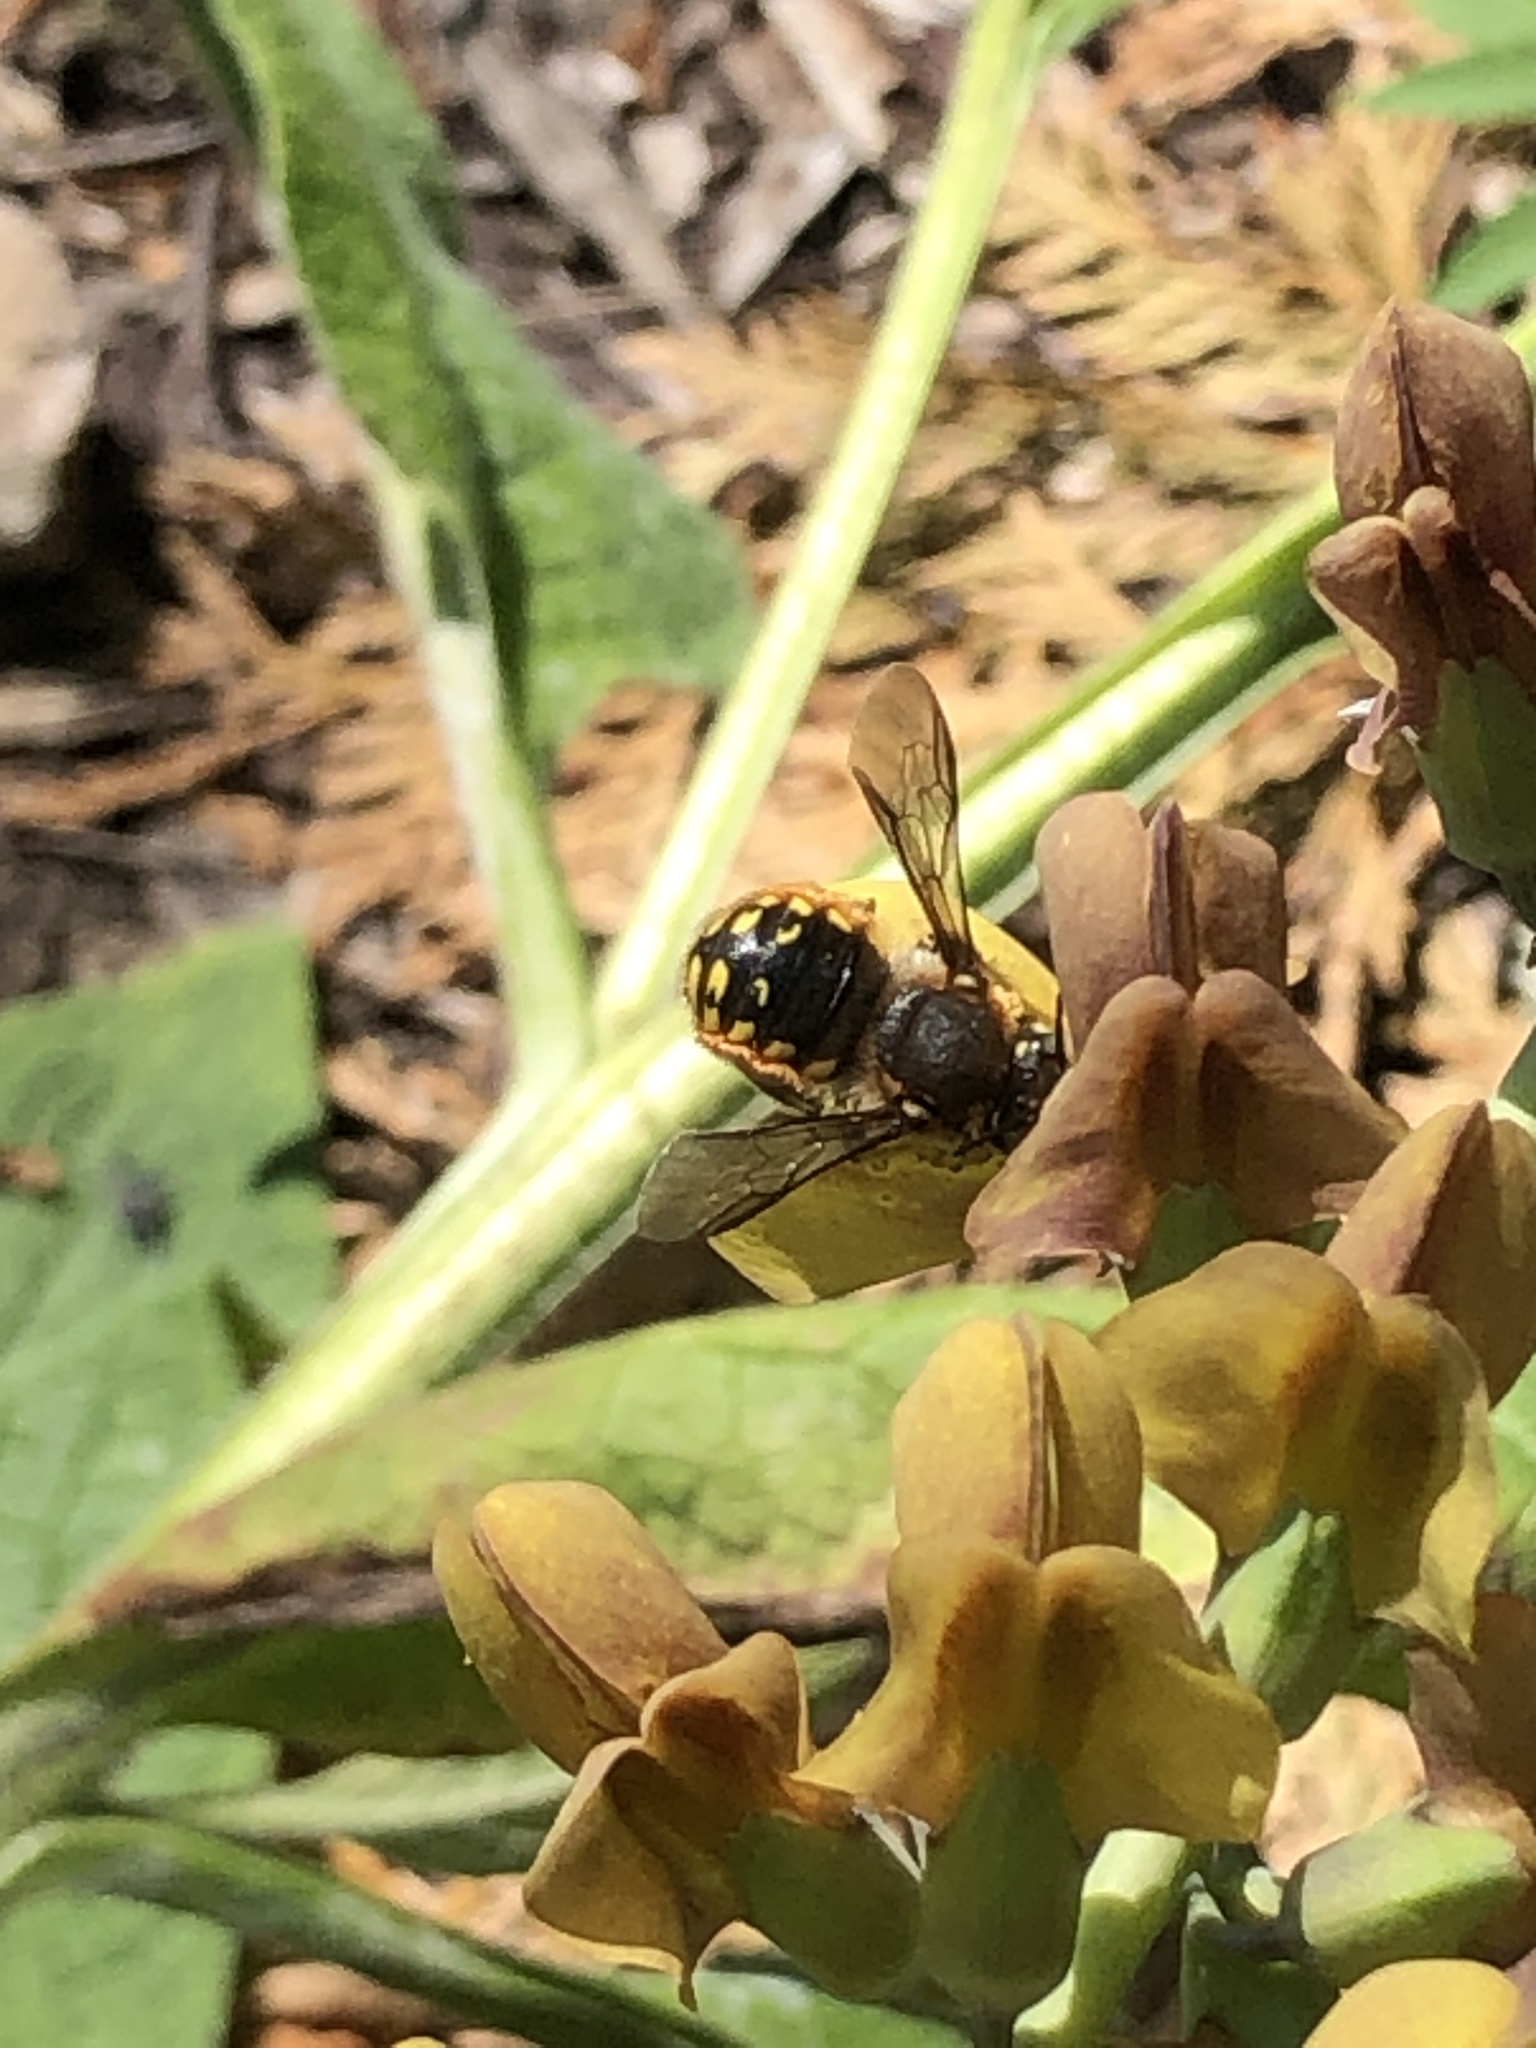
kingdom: Animalia
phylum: Arthropoda
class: Insecta
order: Hymenoptera
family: Megachilidae
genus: Anthidium
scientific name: Anthidium manicatum
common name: Wool carder bee
